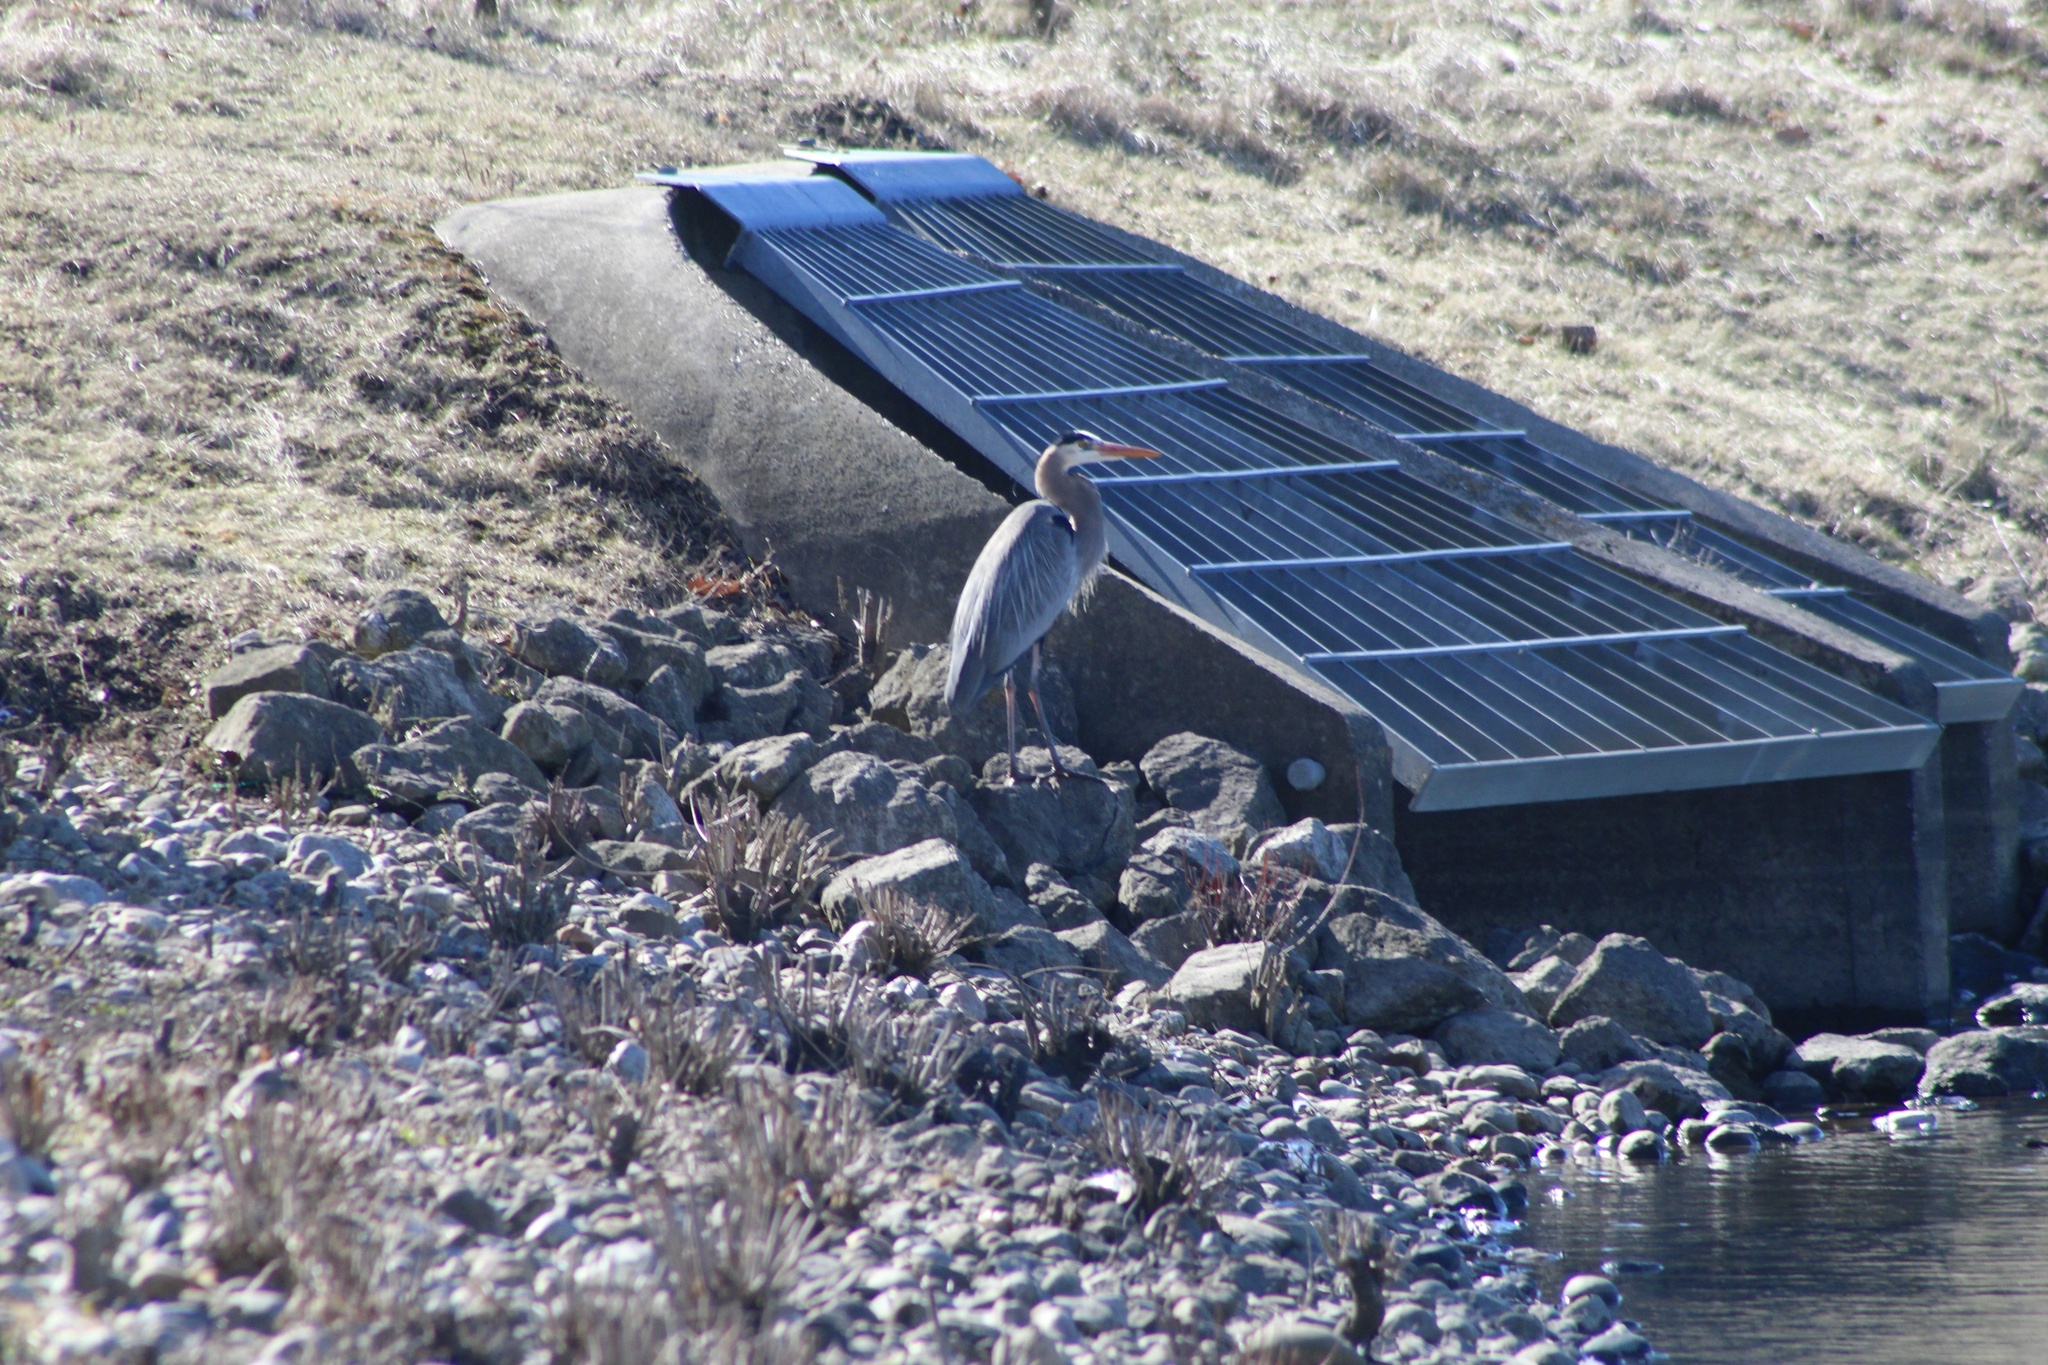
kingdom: Animalia
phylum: Chordata
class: Aves
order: Pelecaniformes
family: Ardeidae
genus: Ardea
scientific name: Ardea herodias
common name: Great blue heron
